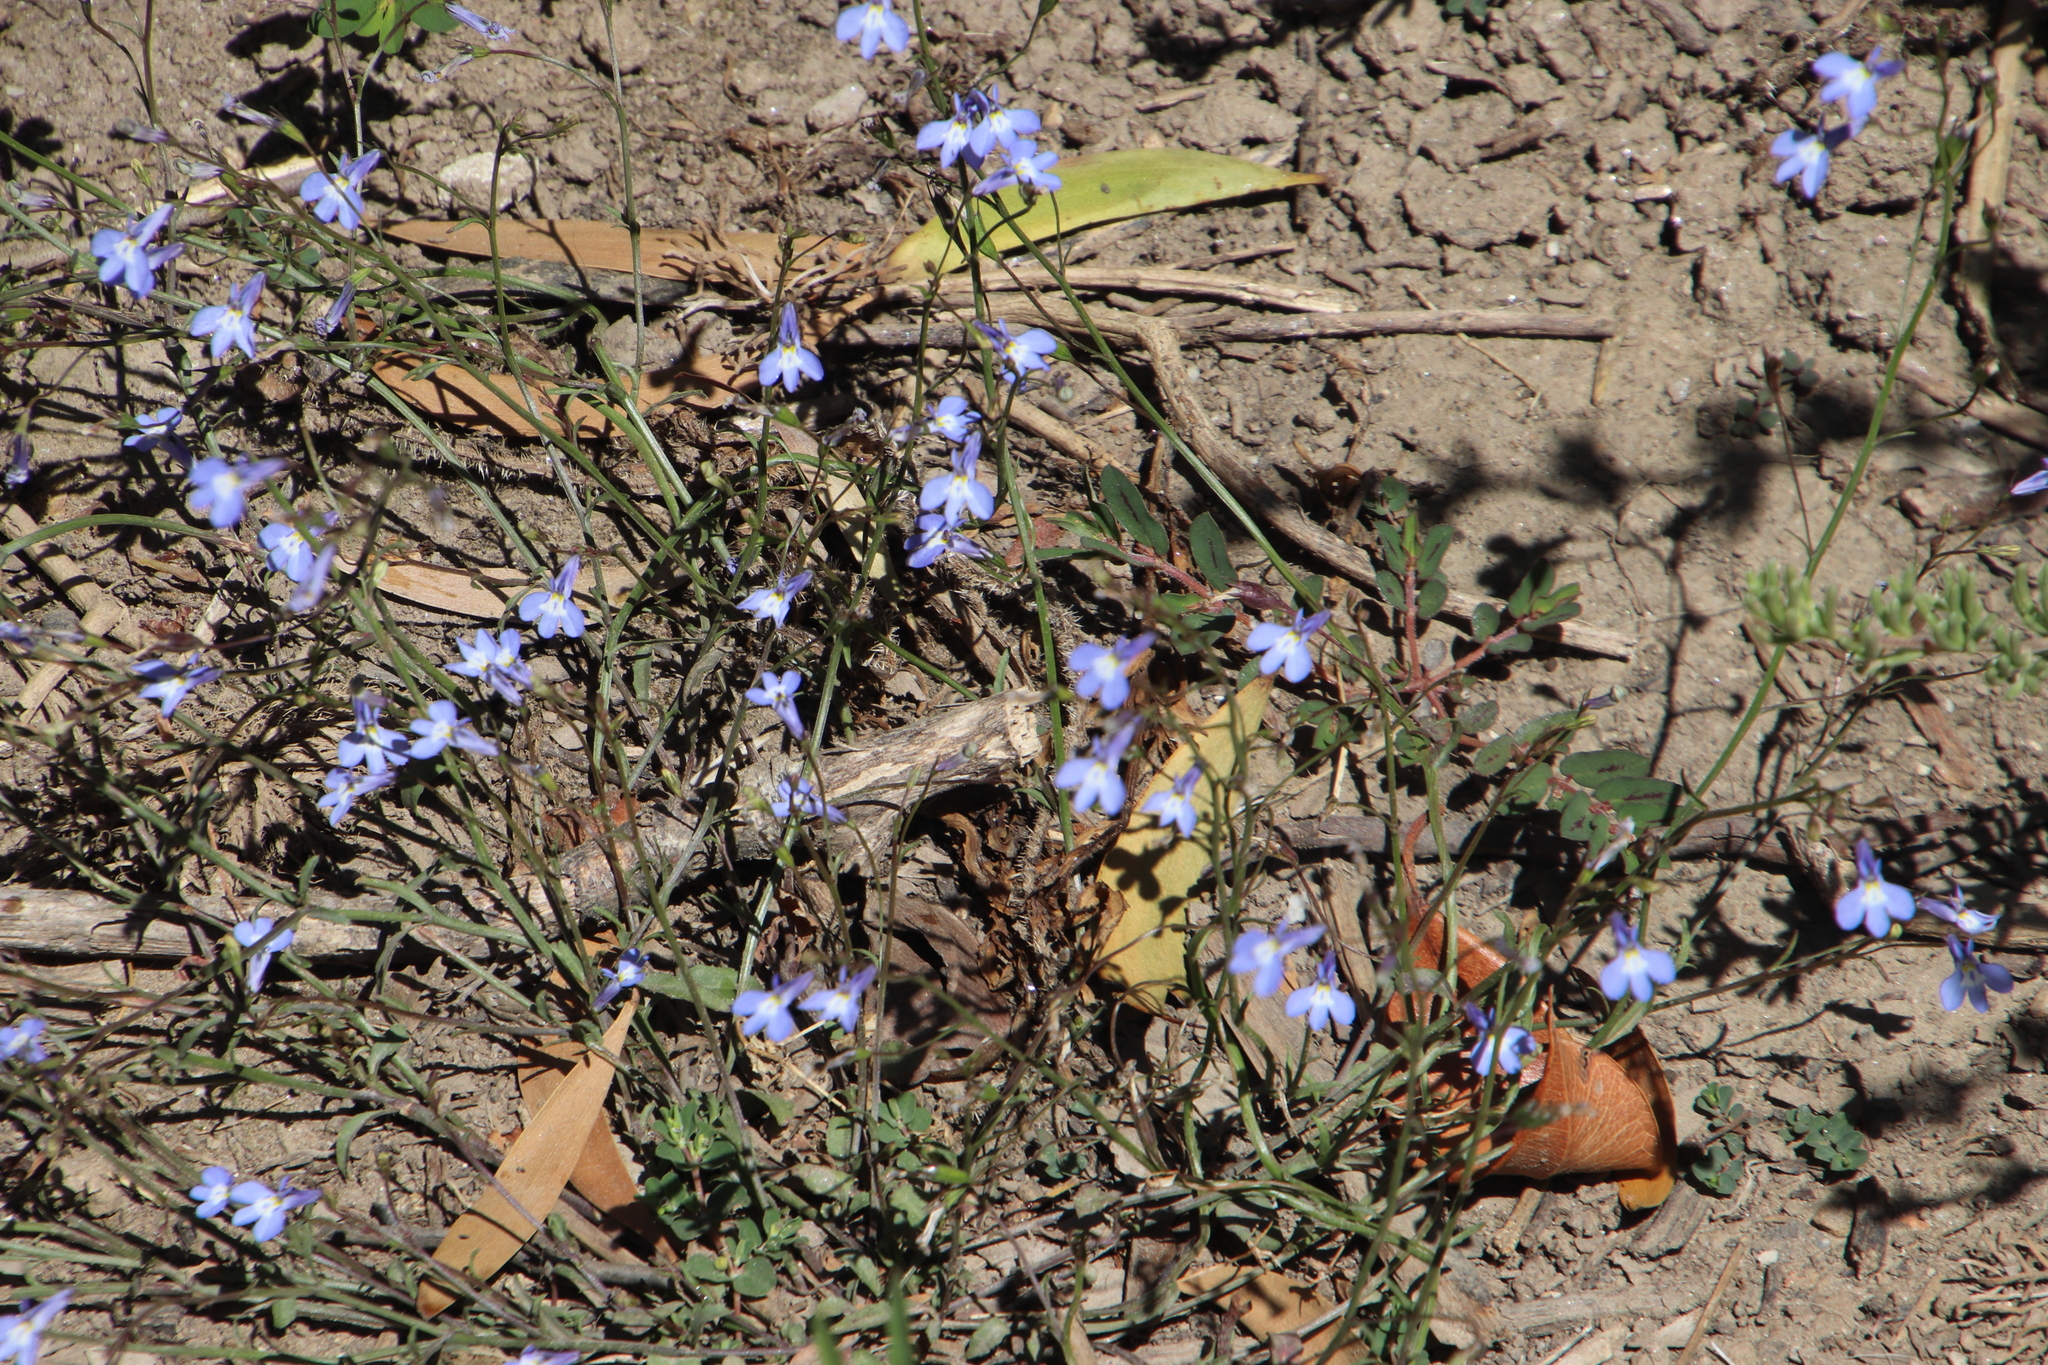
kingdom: Plantae
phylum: Tracheophyta
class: Magnoliopsida
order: Asterales
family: Campanulaceae
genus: Lobelia
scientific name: Lobelia erinus
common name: Edging lobelia
